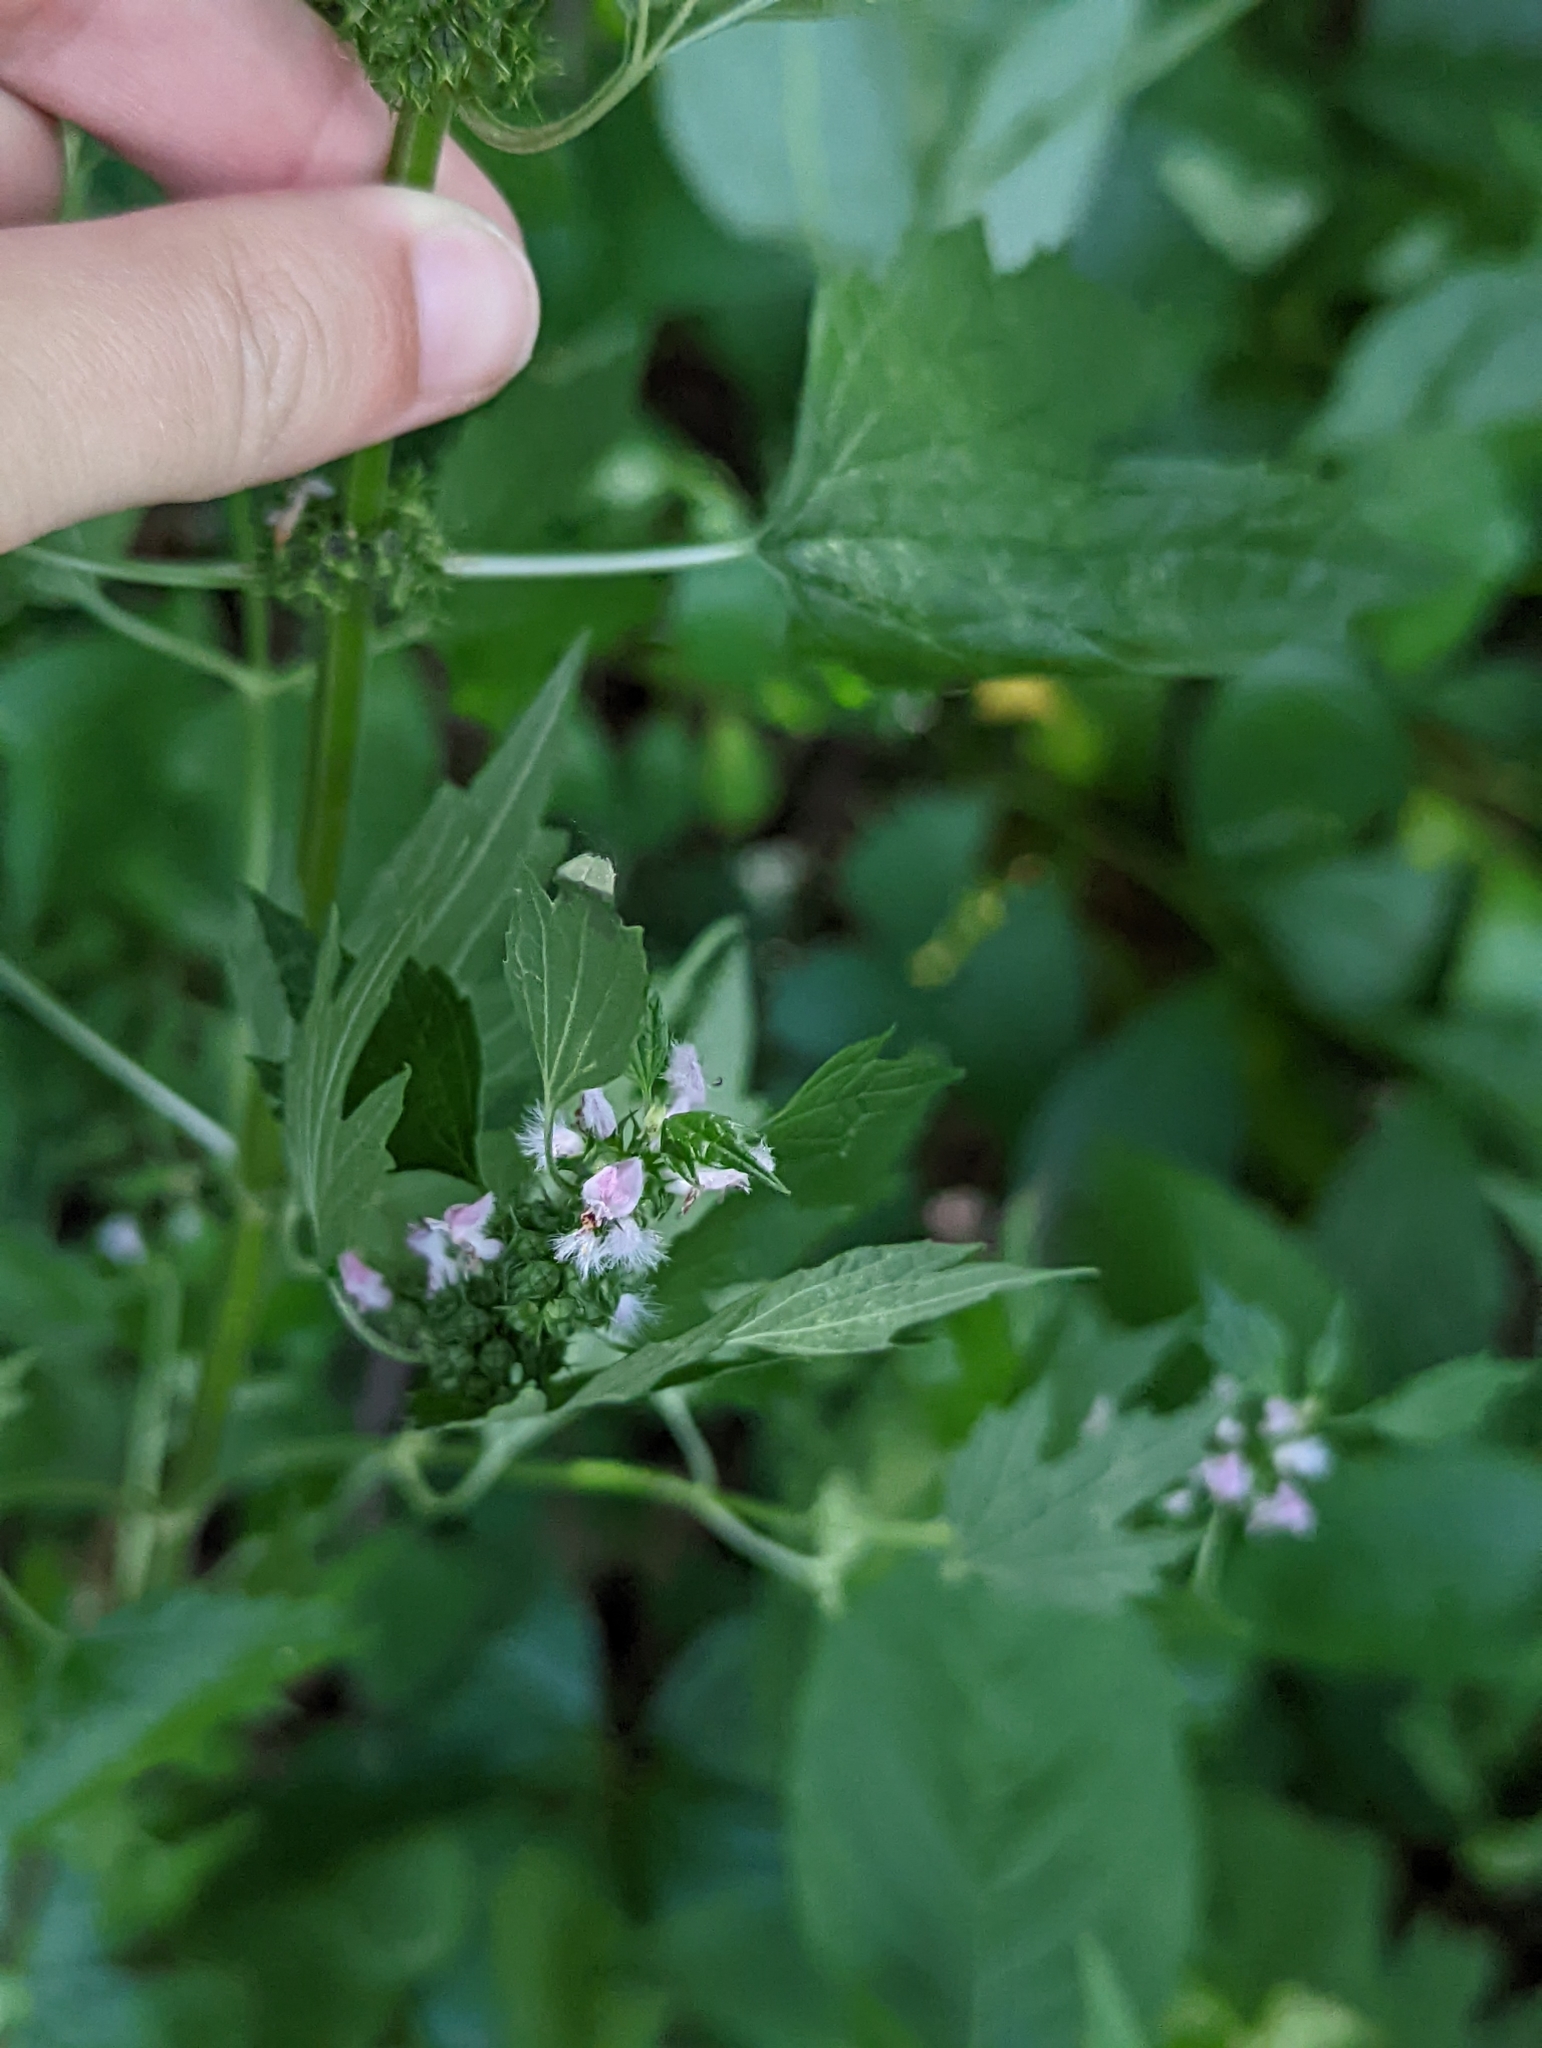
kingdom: Plantae
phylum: Tracheophyta
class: Magnoliopsida
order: Lamiales
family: Lamiaceae
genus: Leonurus
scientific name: Leonurus cardiaca
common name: Motherwort
